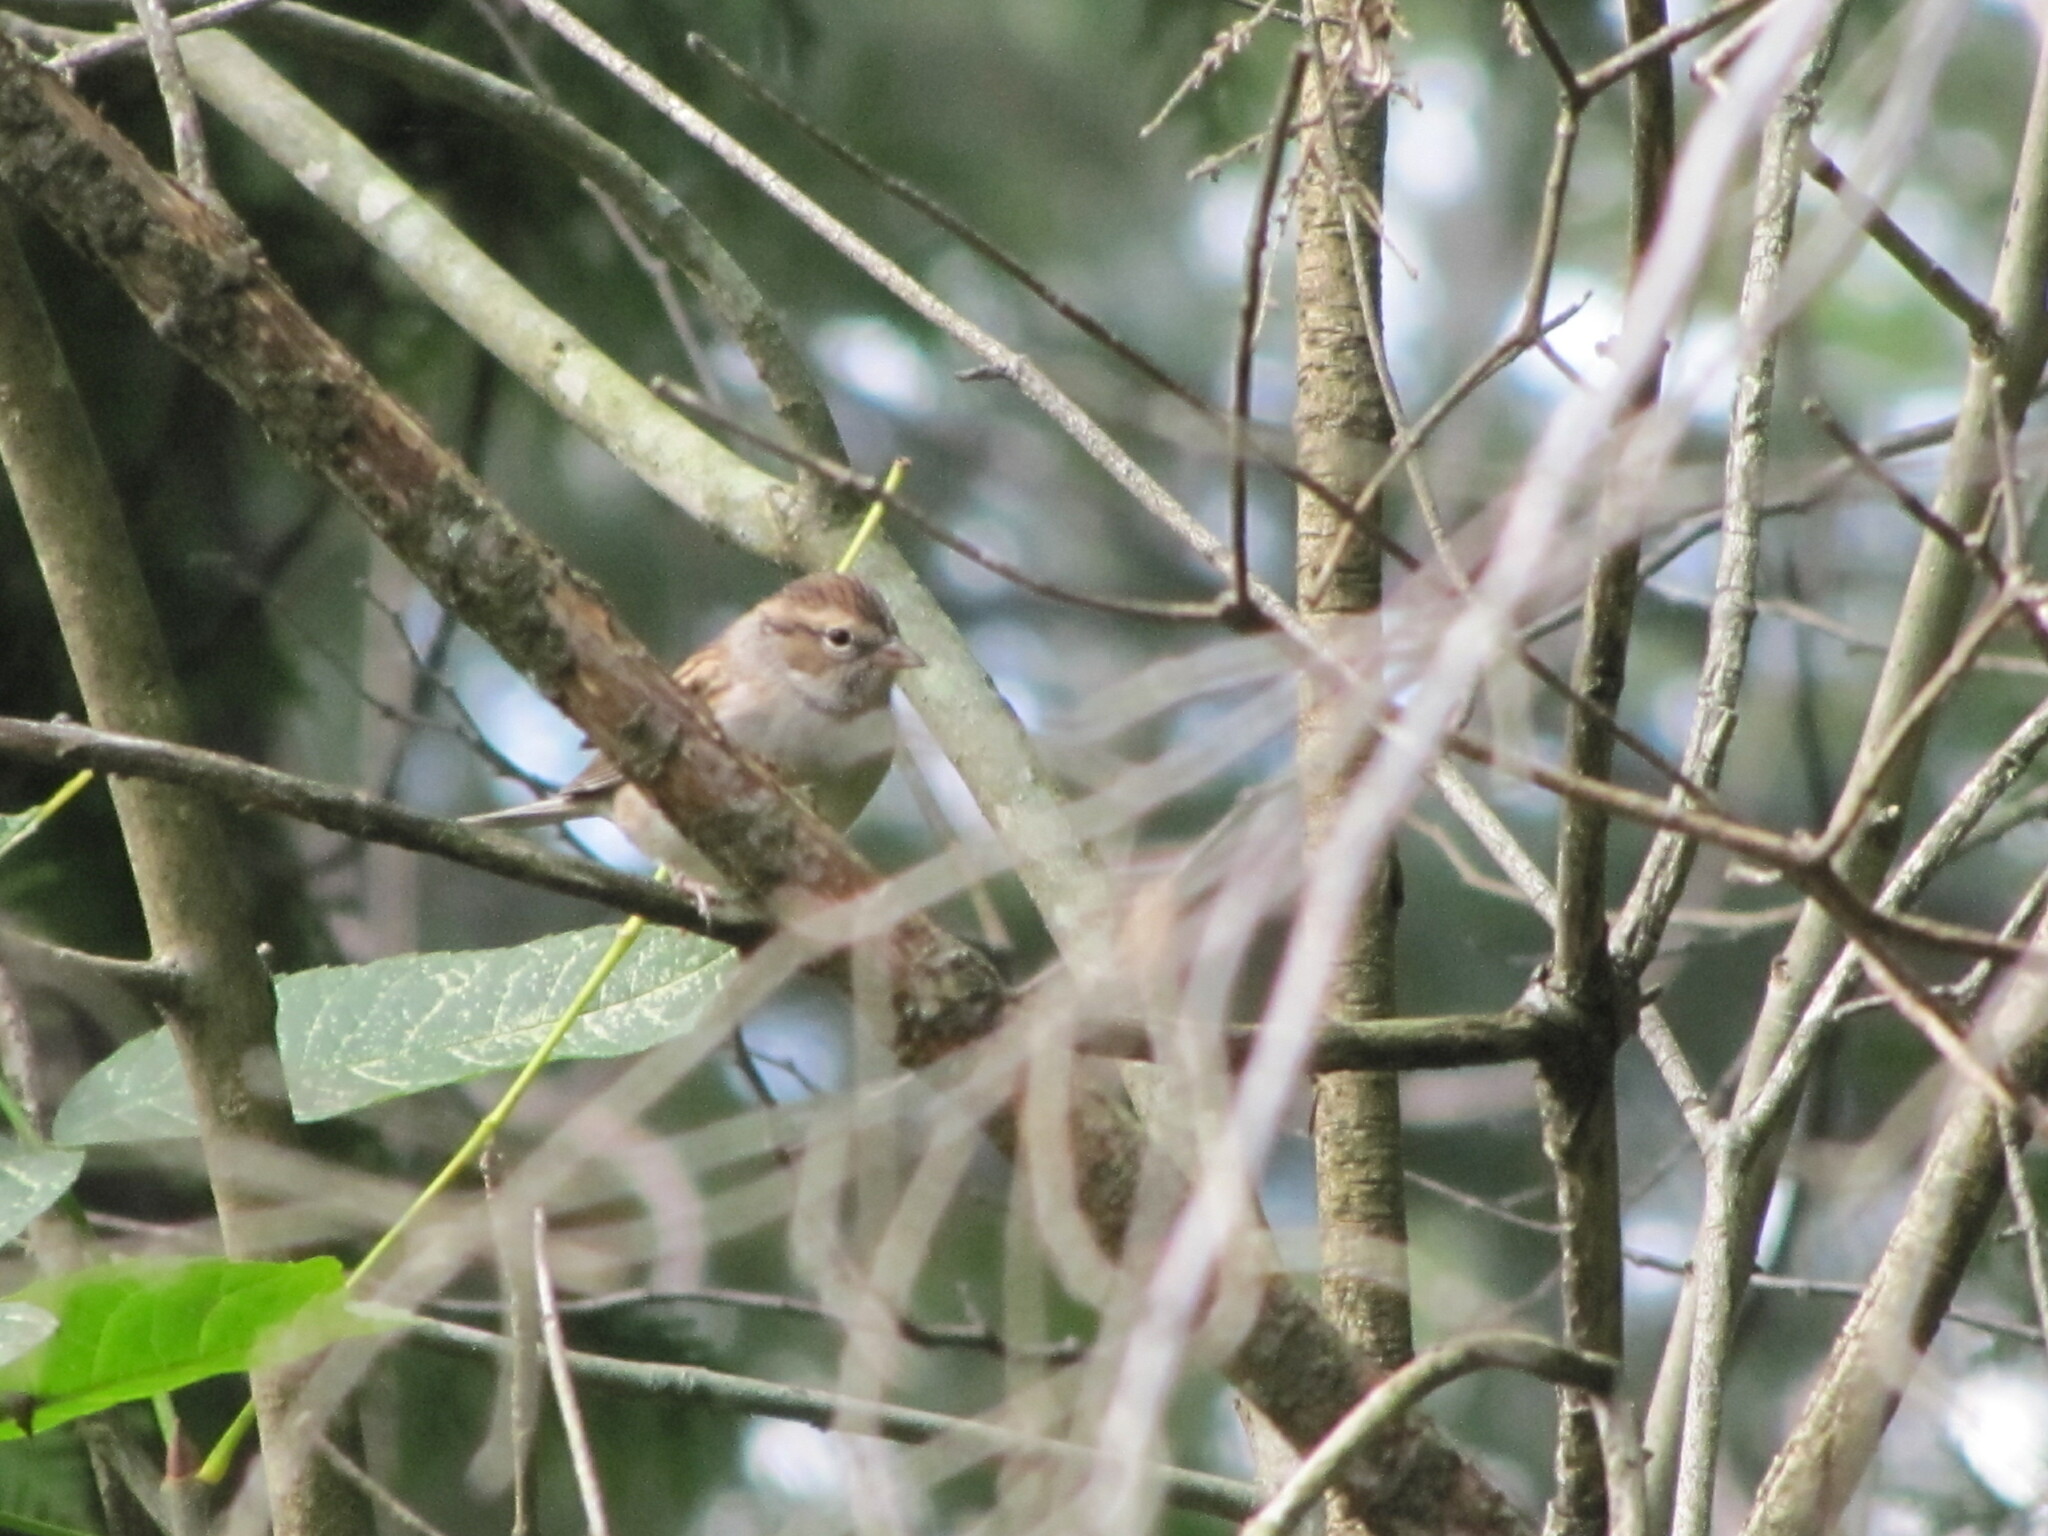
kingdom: Animalia
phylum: Chordata
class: Aves
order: Passeriformes
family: Passerellidae
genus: Spizella
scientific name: Spizella passerina
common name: Chipping sparrow
